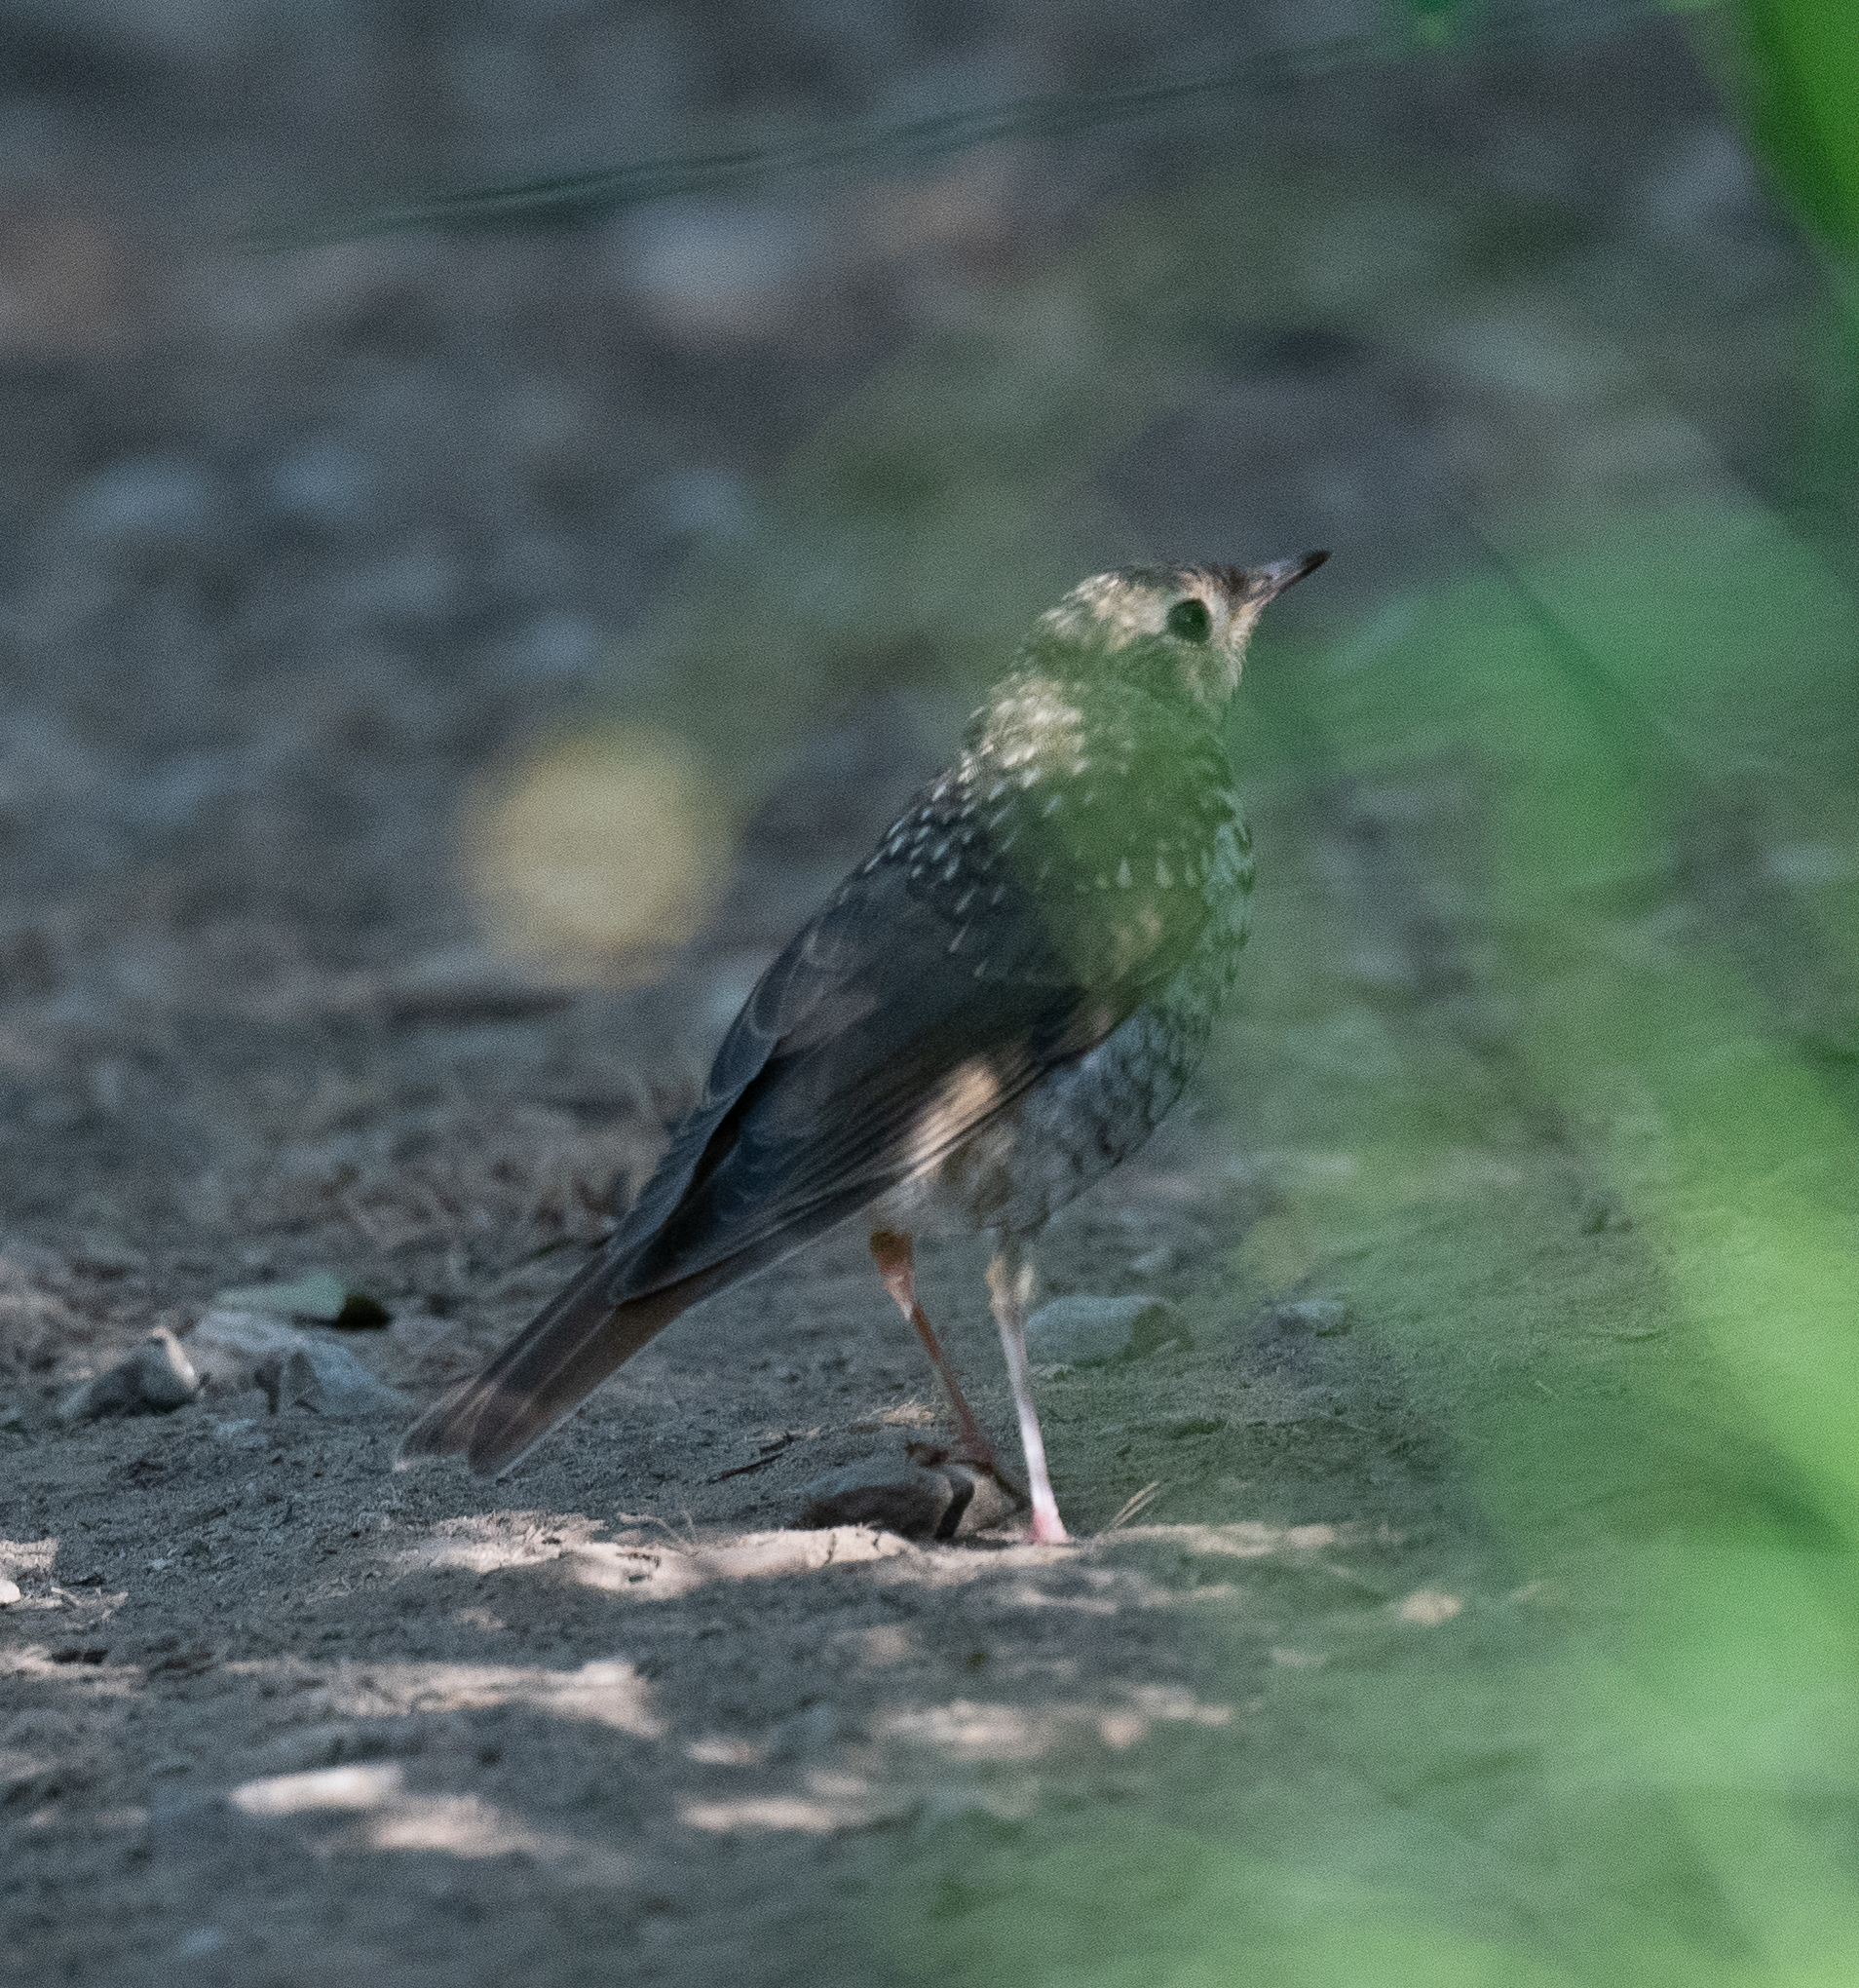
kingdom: Animalia
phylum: Chordata
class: Aves
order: Passeriformes
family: Turdidae
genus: Catharus
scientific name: Catharus guttatus
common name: Hermit thrush
